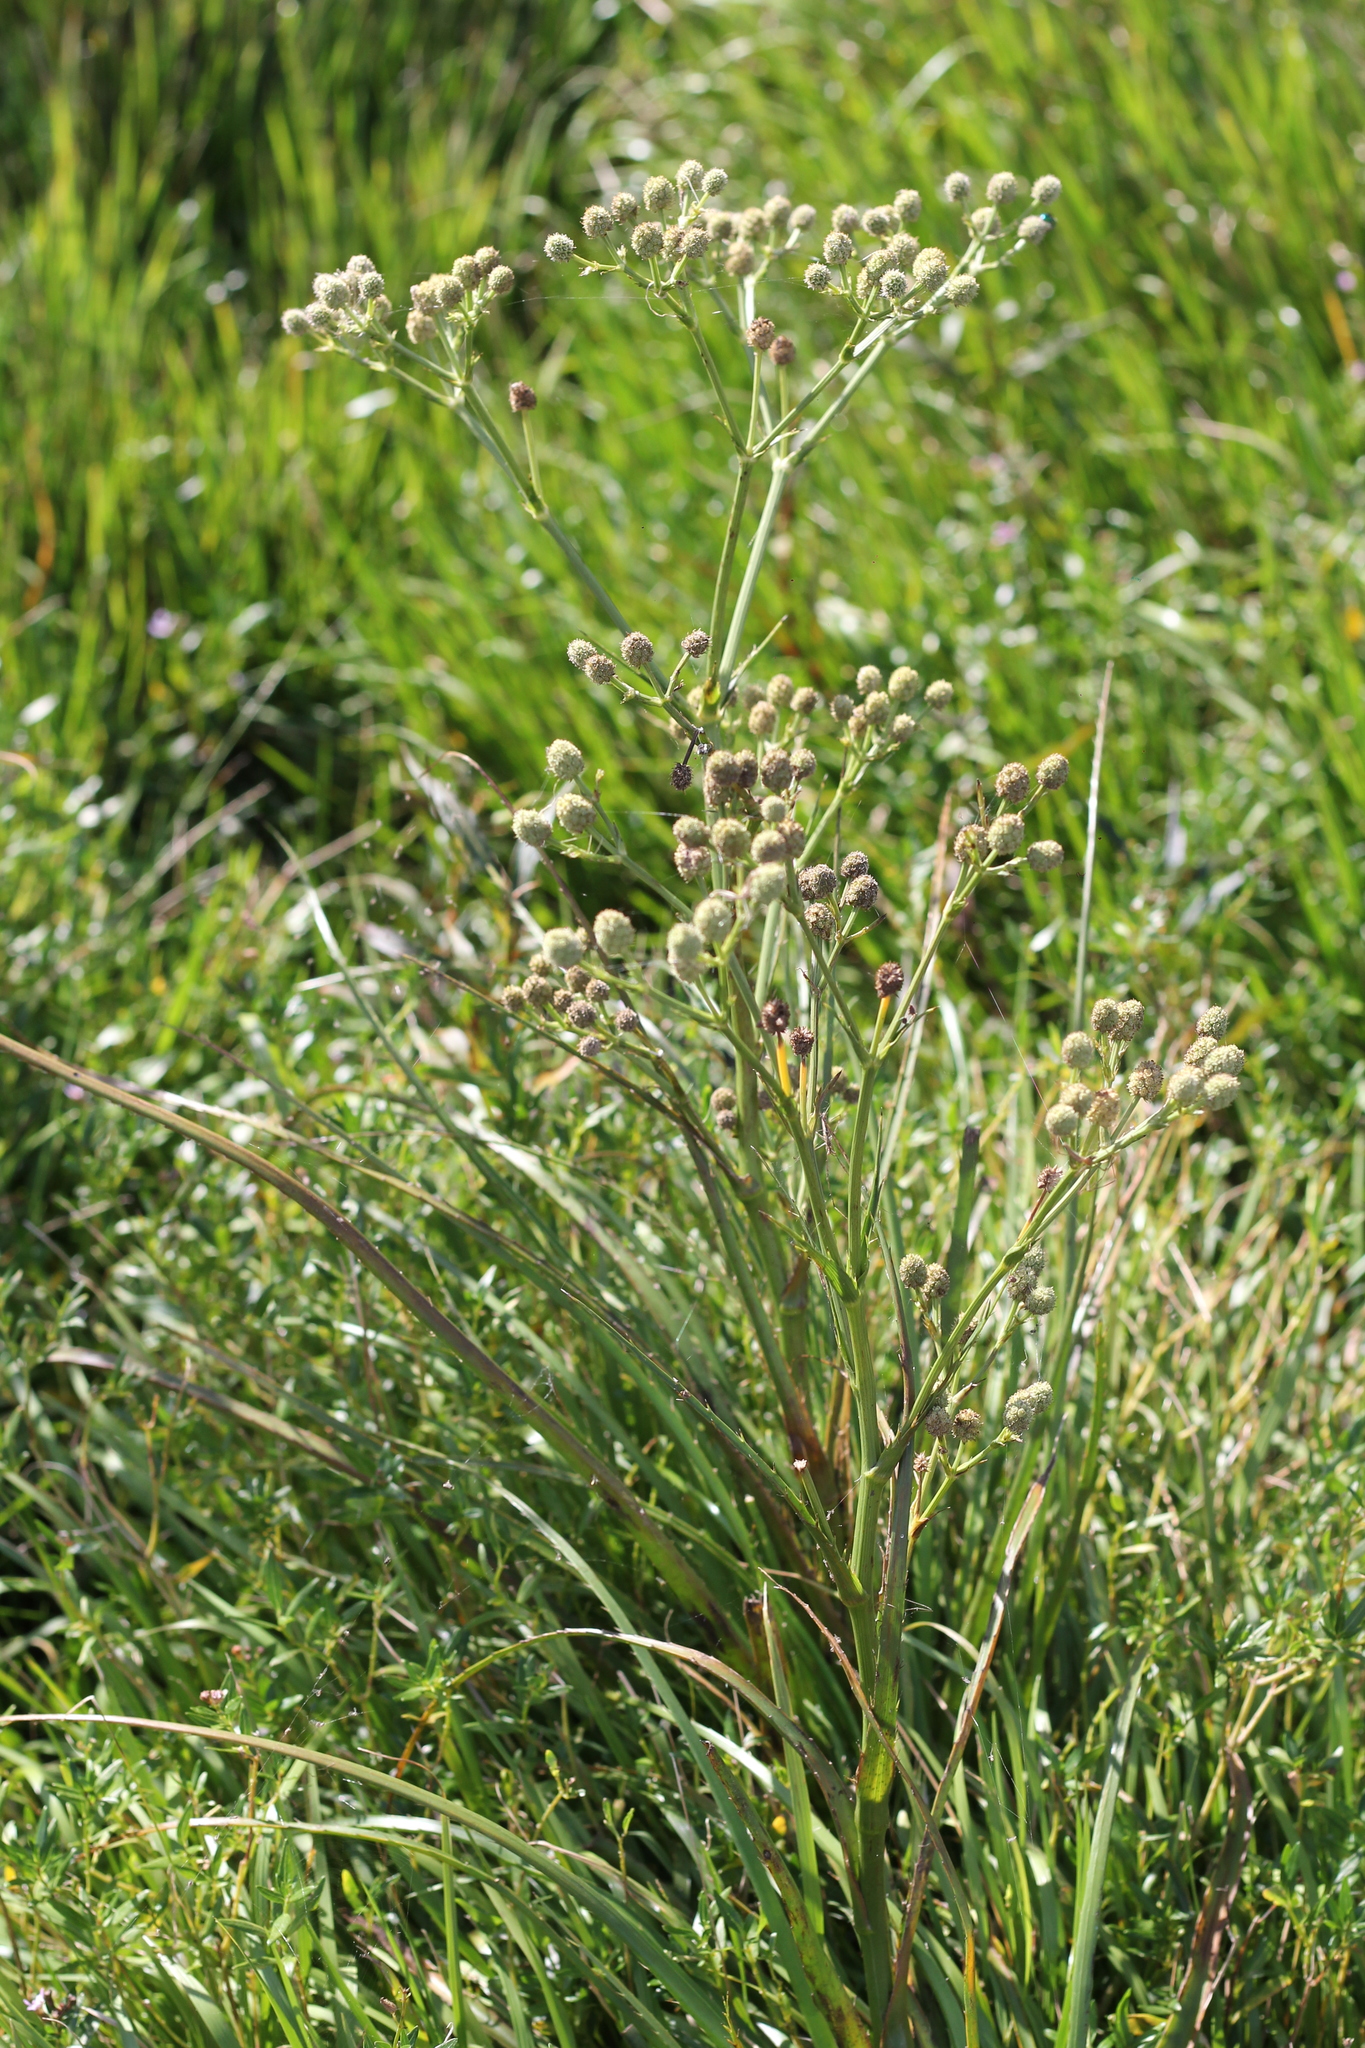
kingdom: Plantae
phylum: Tracheophyta
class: Magnoliopsida
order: Apiales
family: Apiaceae
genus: Eryngium
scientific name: Eryngium pandanifolium
